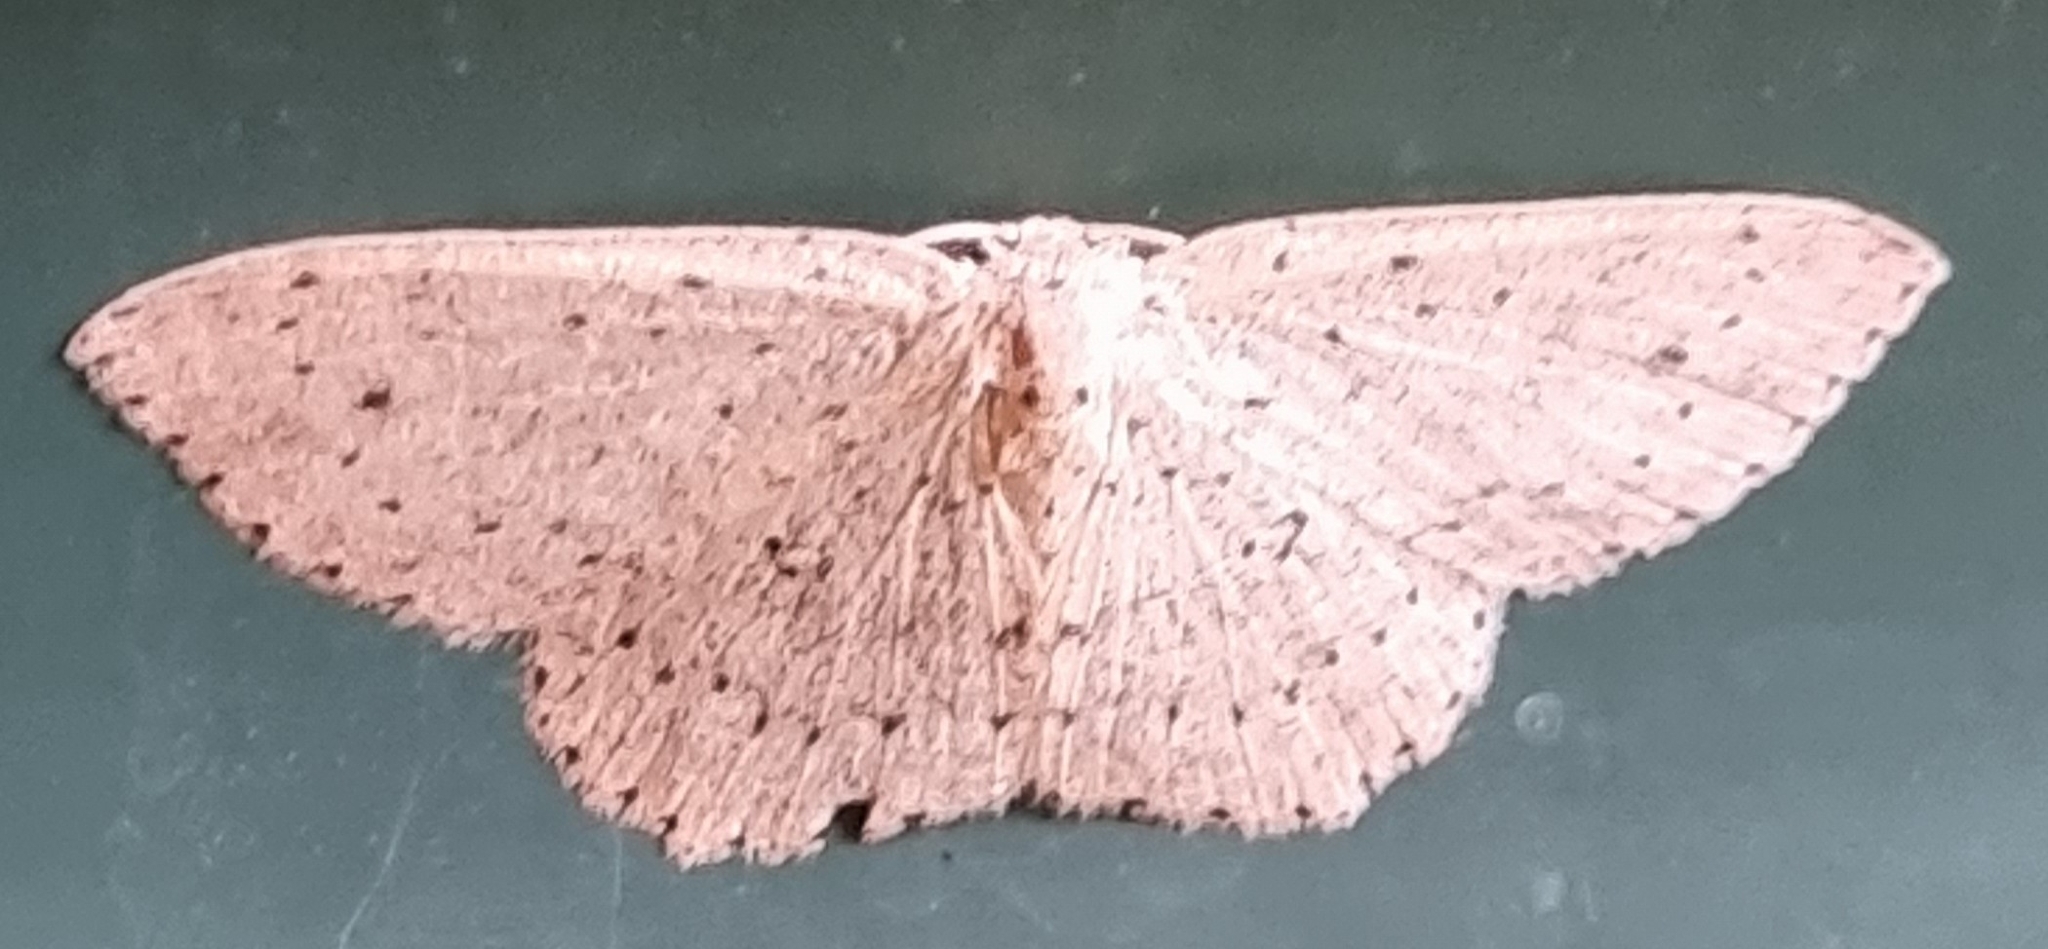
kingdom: Animalia
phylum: Arthropoda
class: Insecta
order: Lepidoptera
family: Geometridae
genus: Cyclophora
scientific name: Cyclophora turneri
